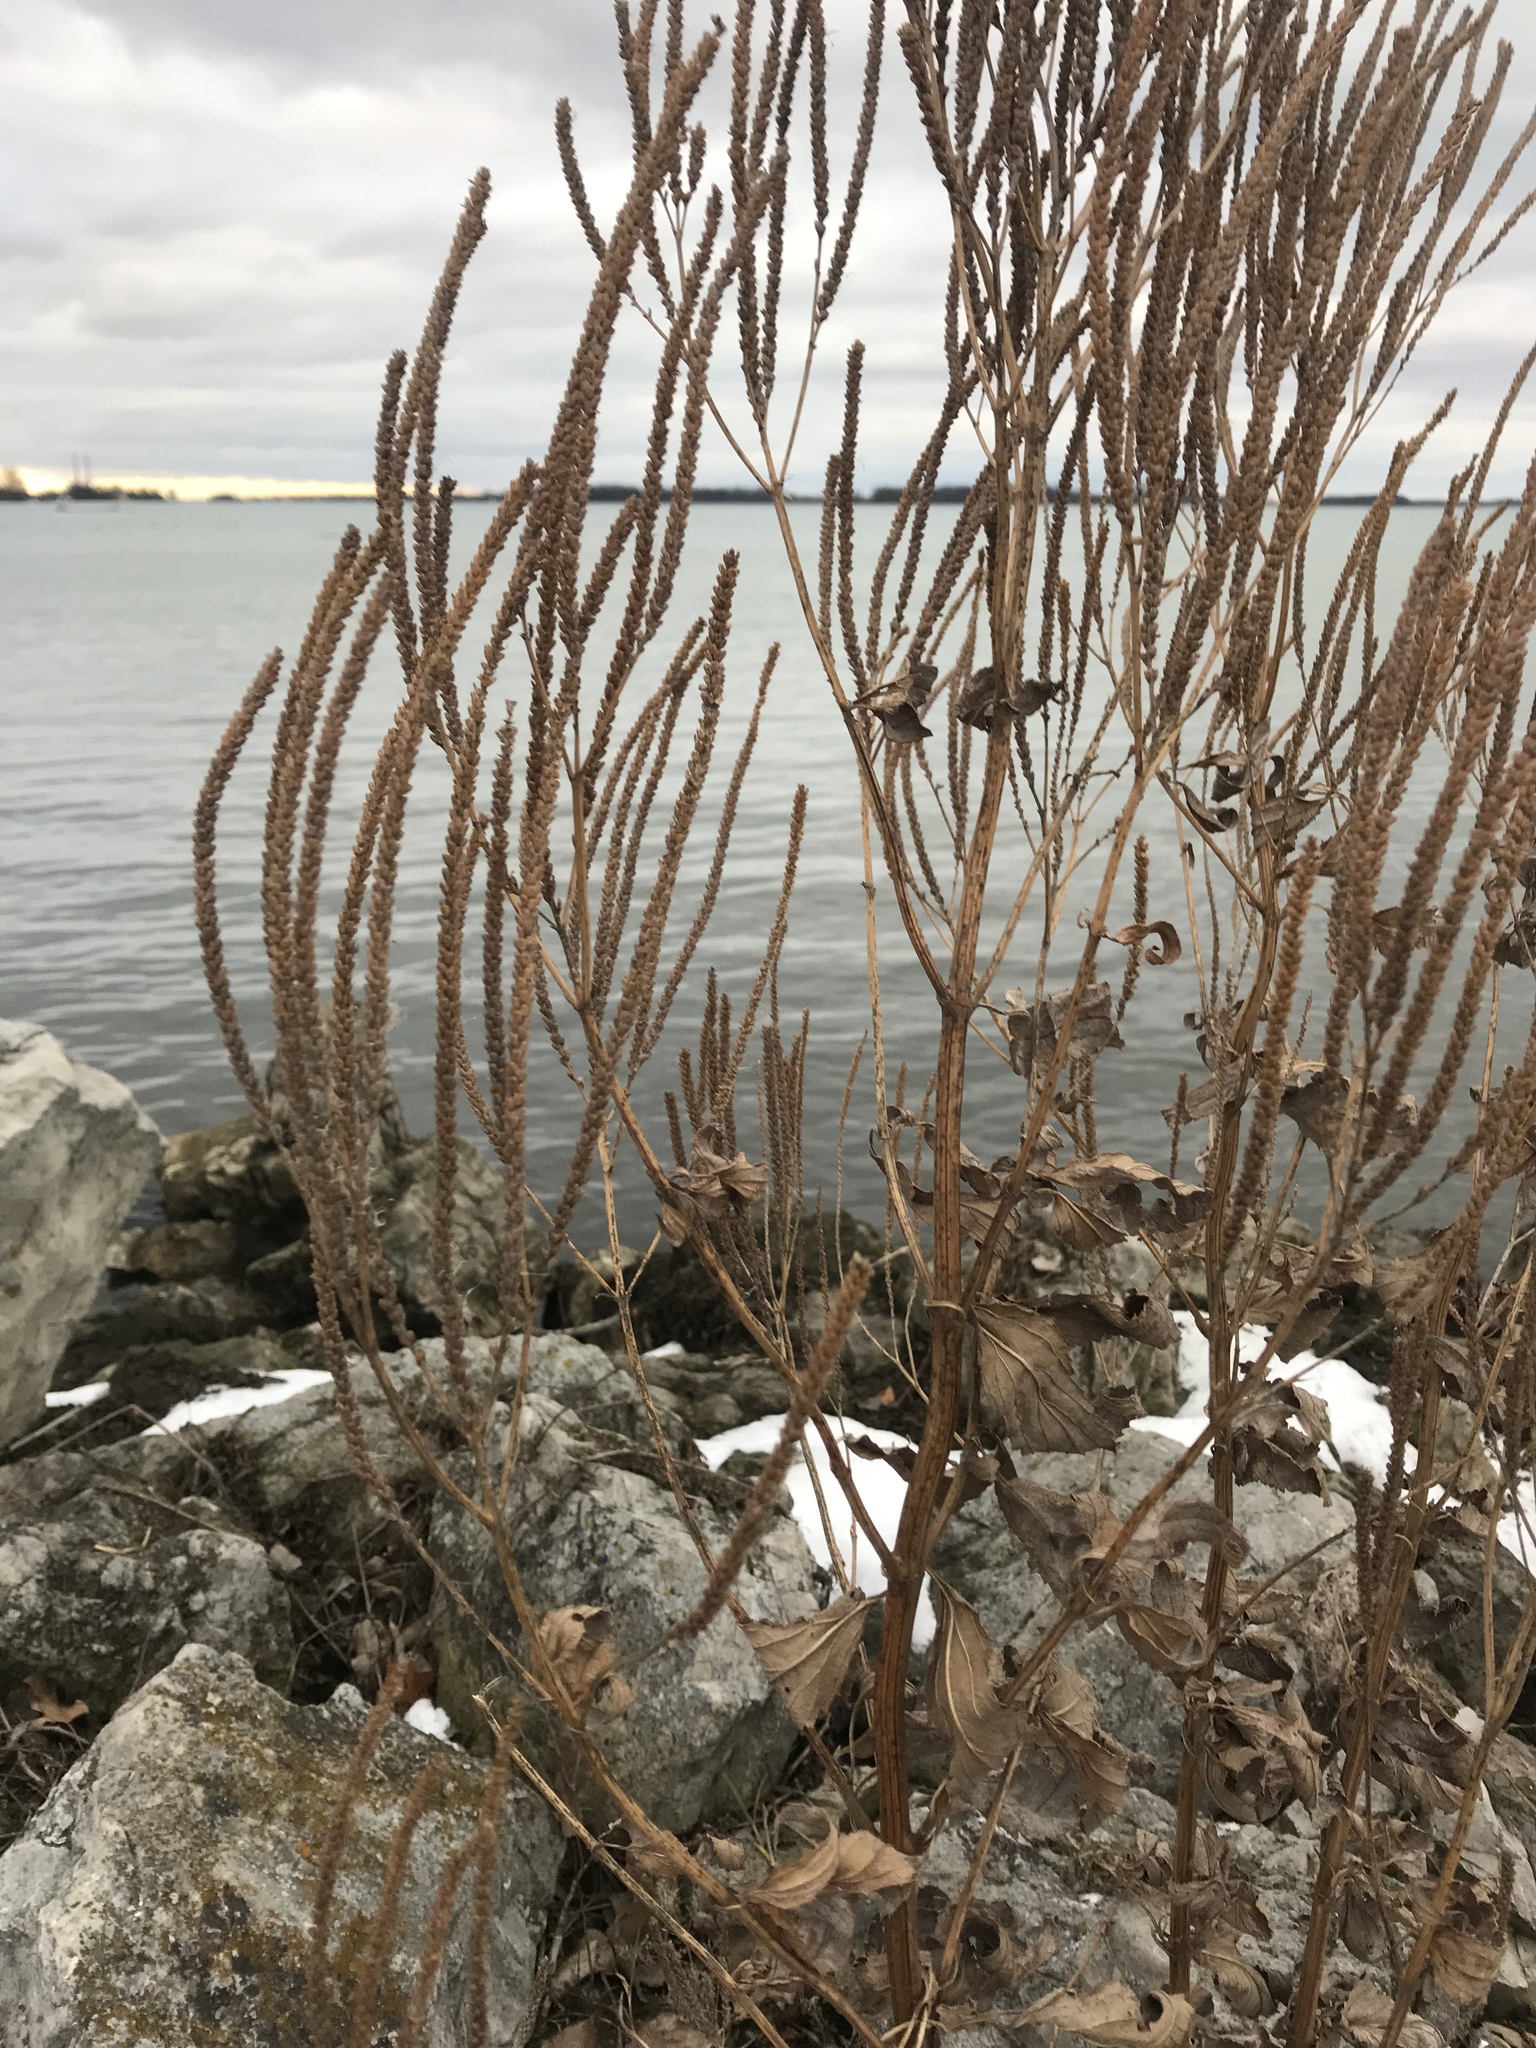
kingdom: Plantae
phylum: Tracheophyta
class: Magnoliopsida
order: Lamiales
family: Verbenaceae
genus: Verbena
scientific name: Verbena hastata
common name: American blue vervain
